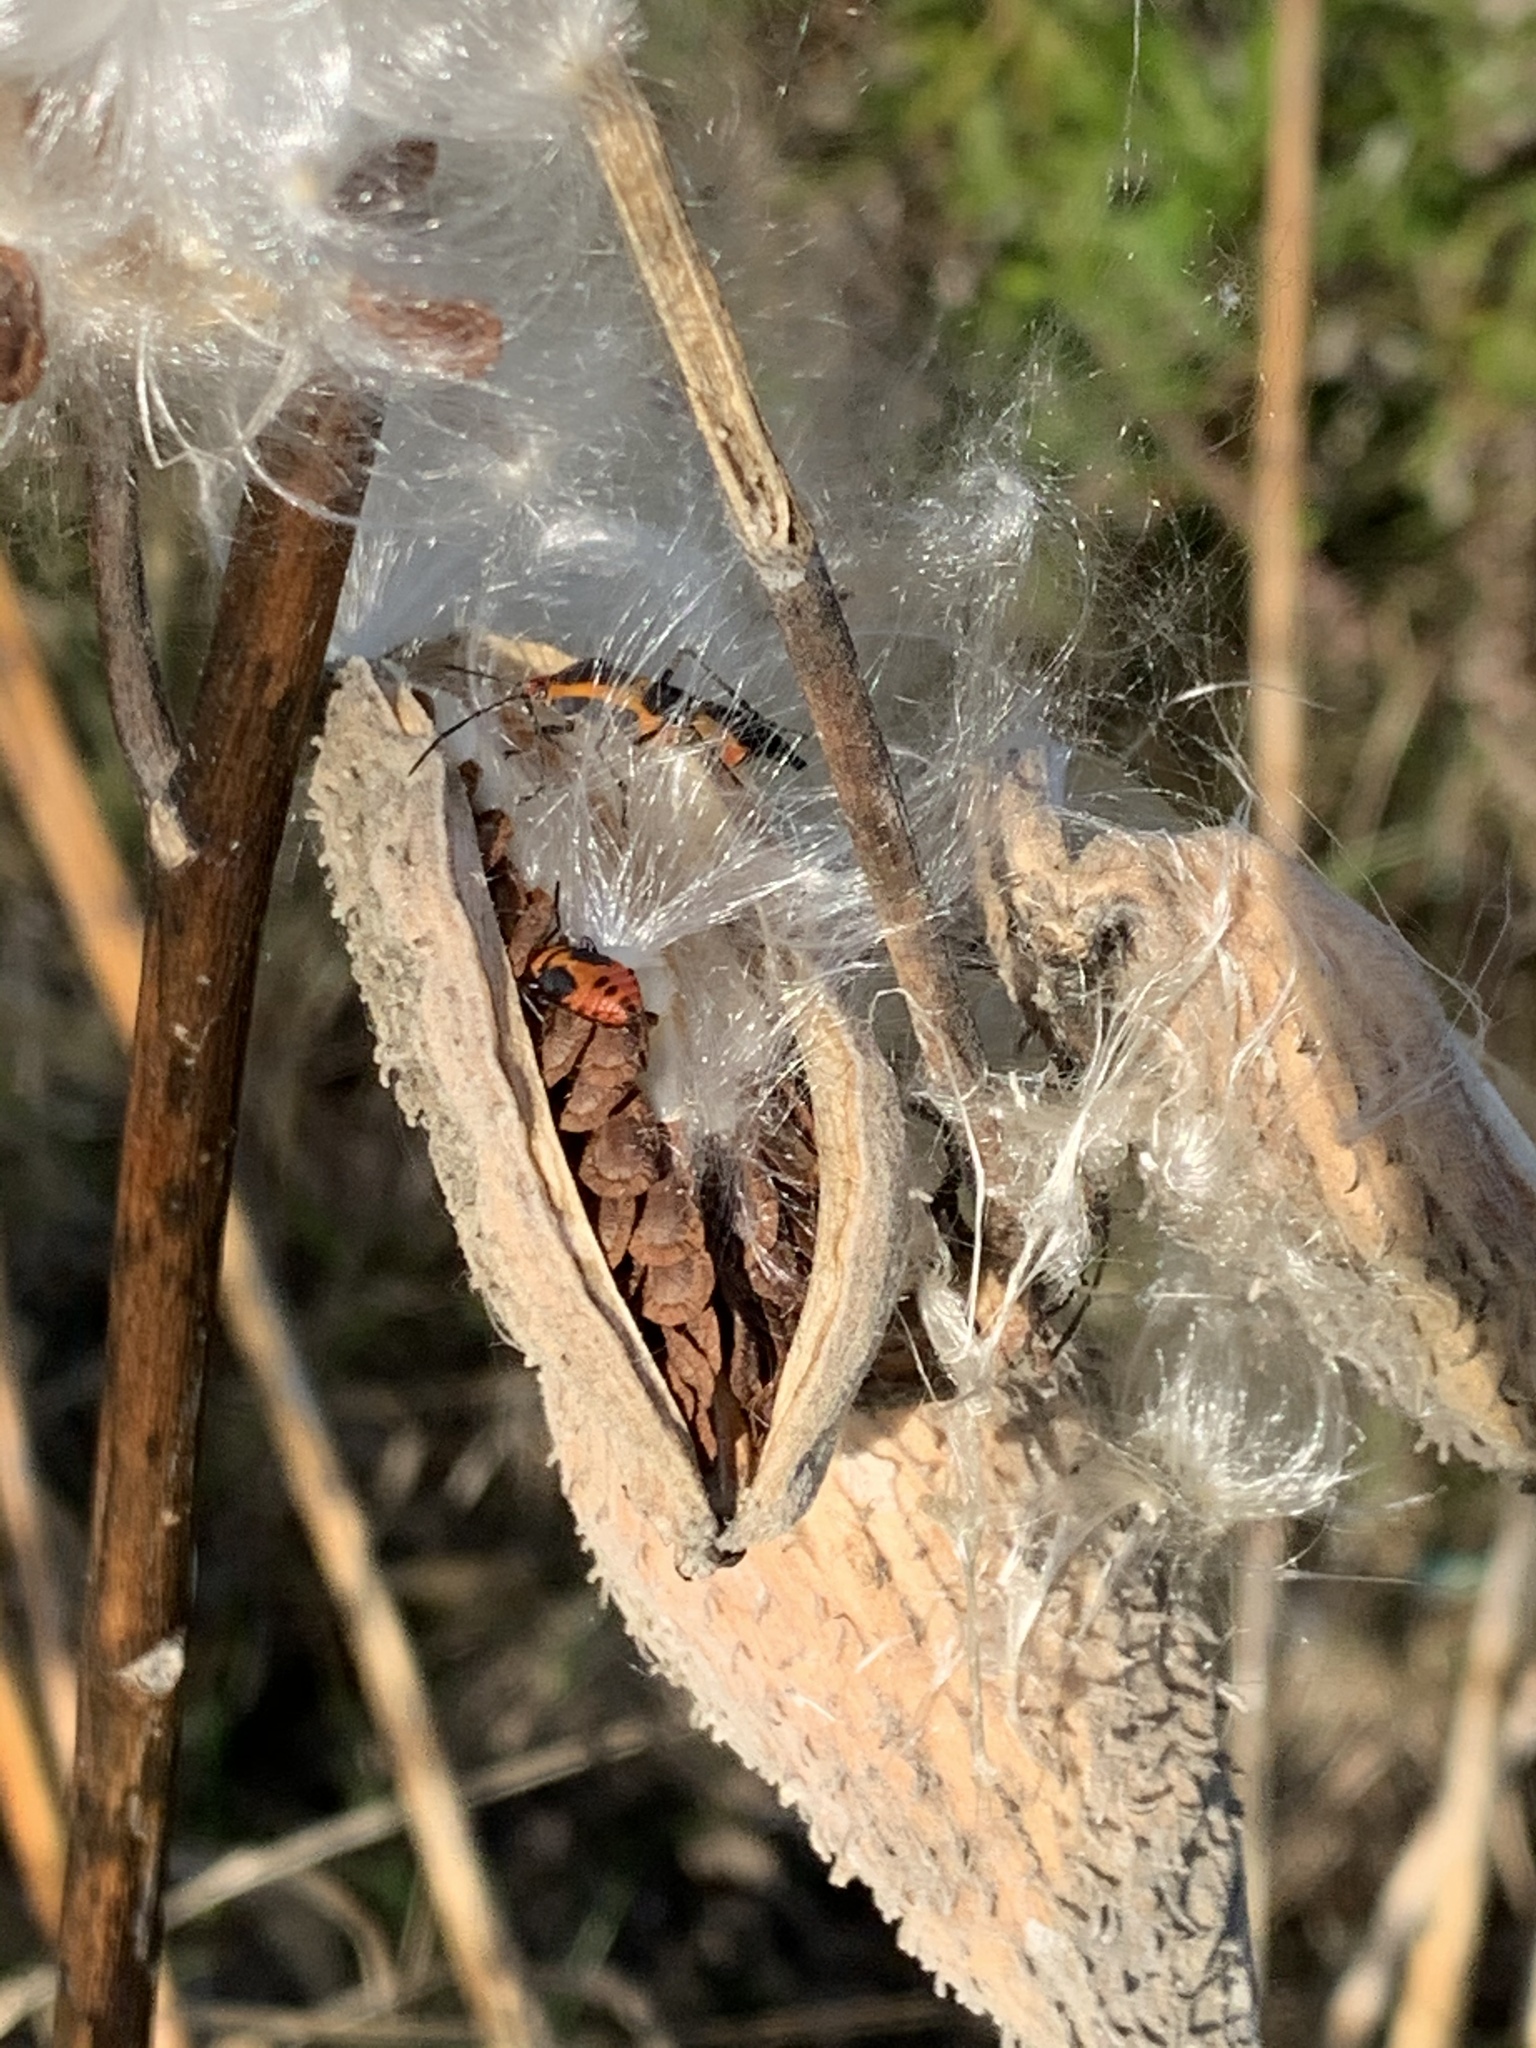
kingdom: Plantae
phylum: Tracheophyta
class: Magnoliopsida
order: Gentianales
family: Apocynaceae
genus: Asclepias
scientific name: Asclepias syriaca
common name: Common milkweed
